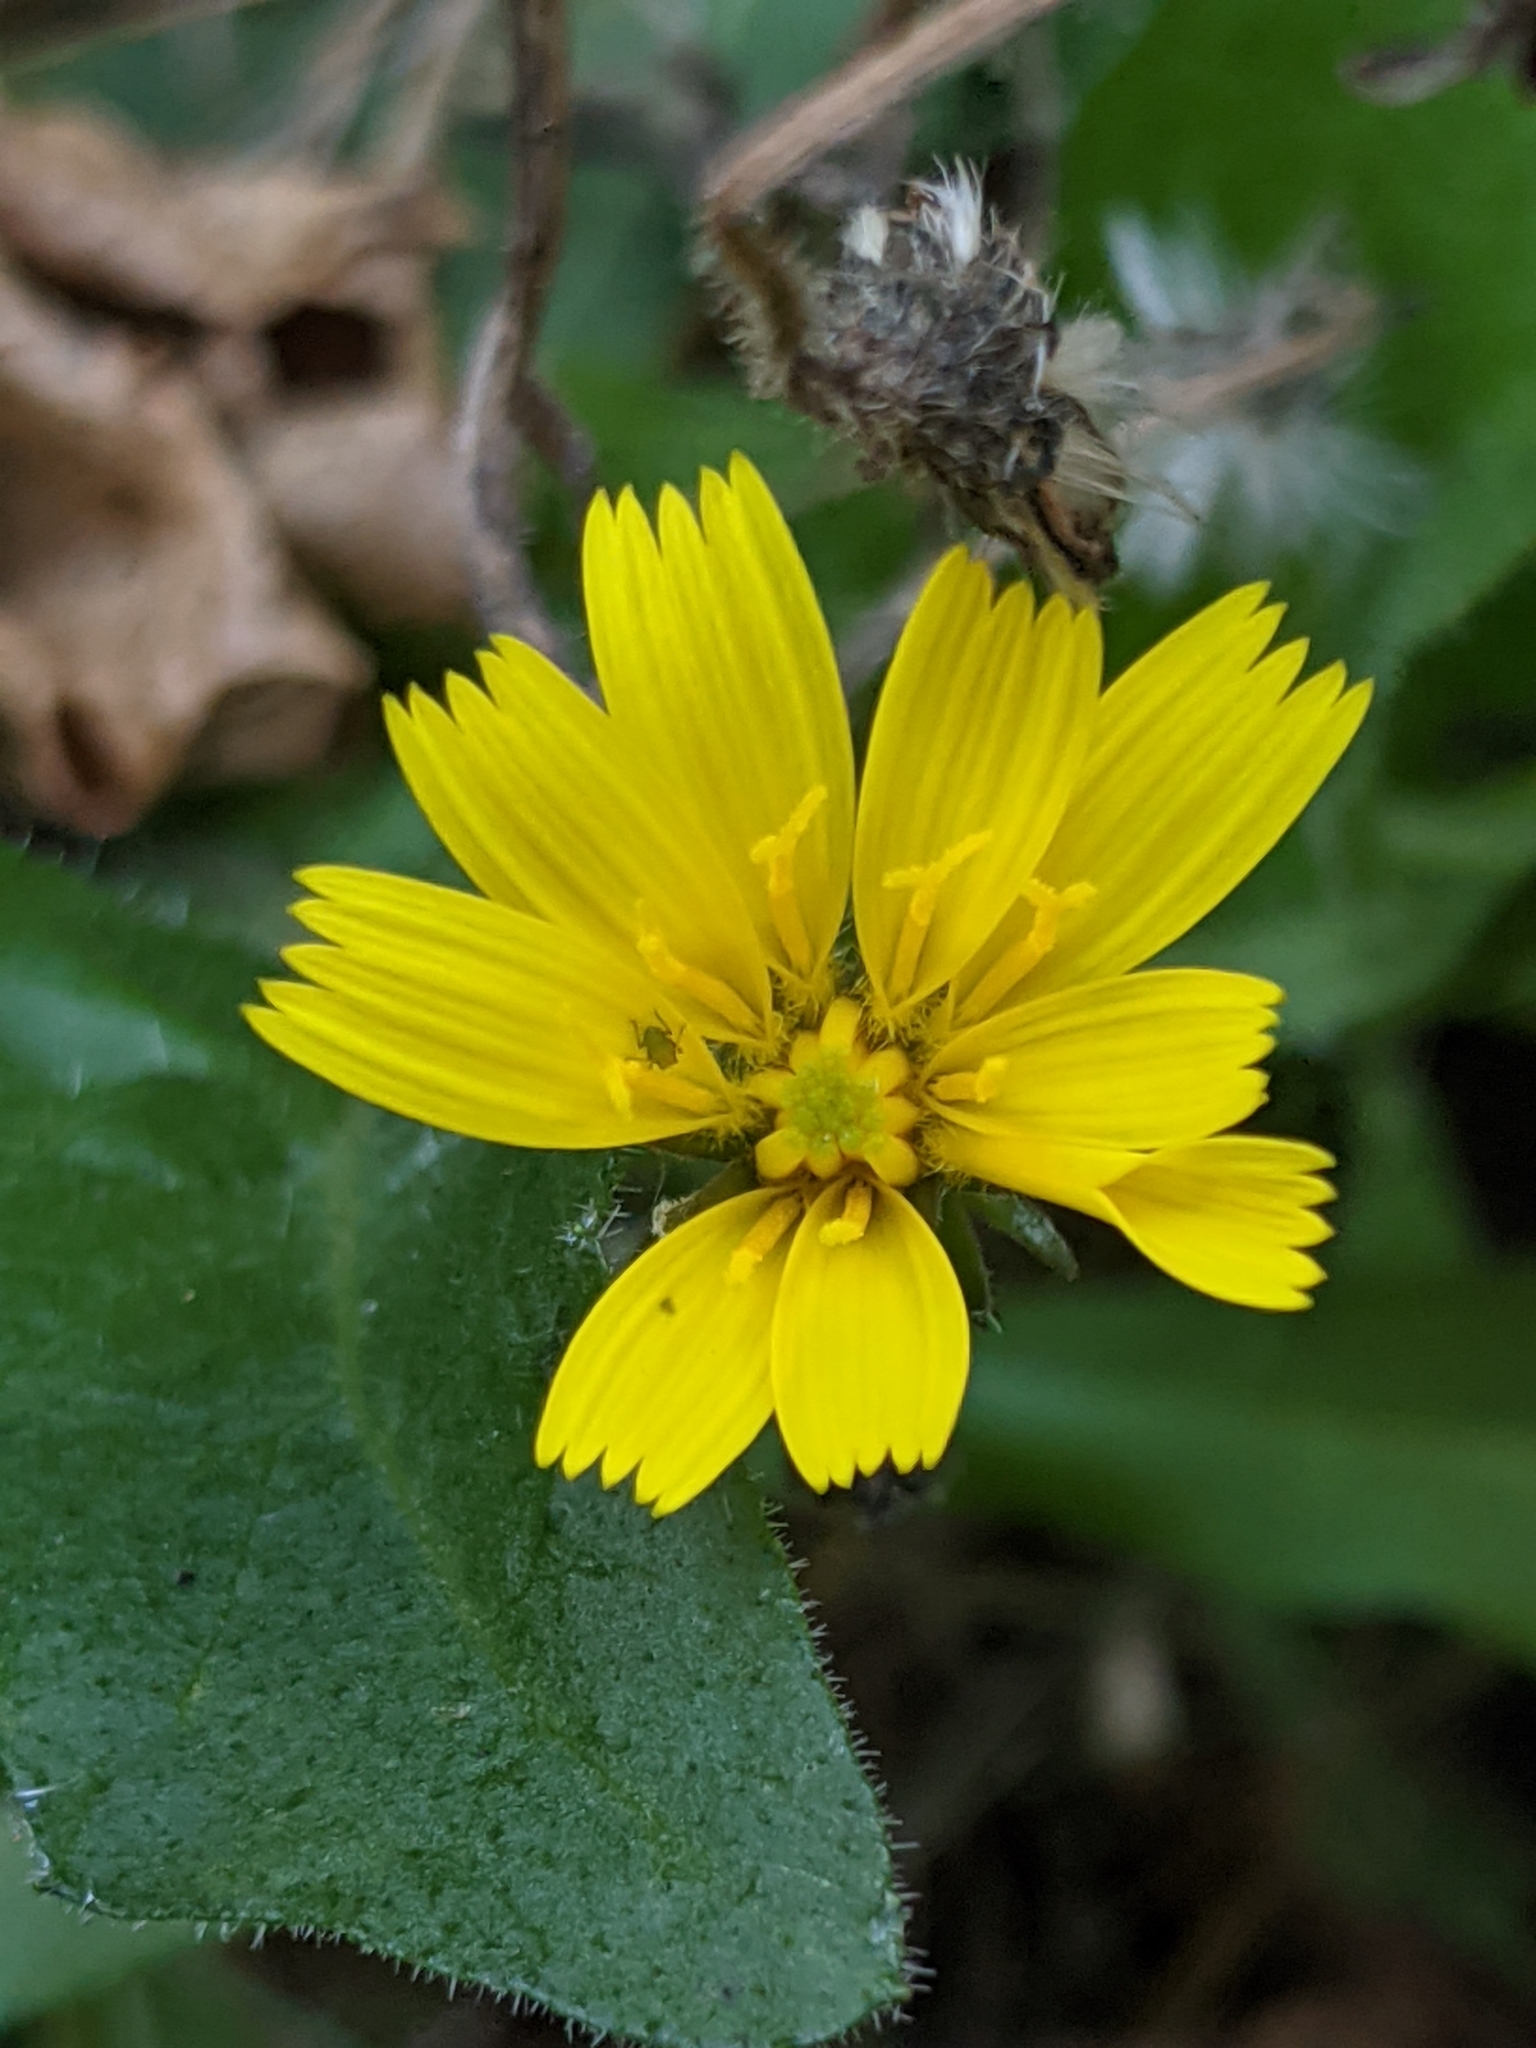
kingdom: Plantae
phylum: Tracheophyta
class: Magnoliopsida
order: Asterales
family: Asteraceae
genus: Picris
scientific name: Picris hieracioides
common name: Hawkweed oxtongue
